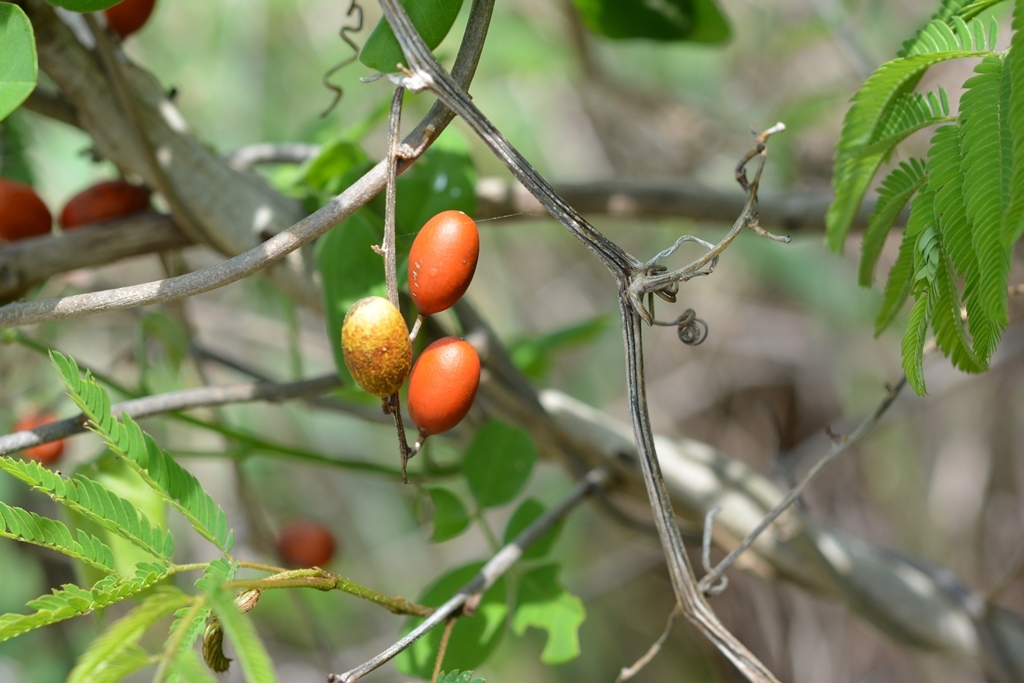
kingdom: Plantae
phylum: Tracheophyta
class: Magnoliopsida
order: Cucurbitales
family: Cucurbitaceae
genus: Cayaponia
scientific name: Cayaponia racemosa
